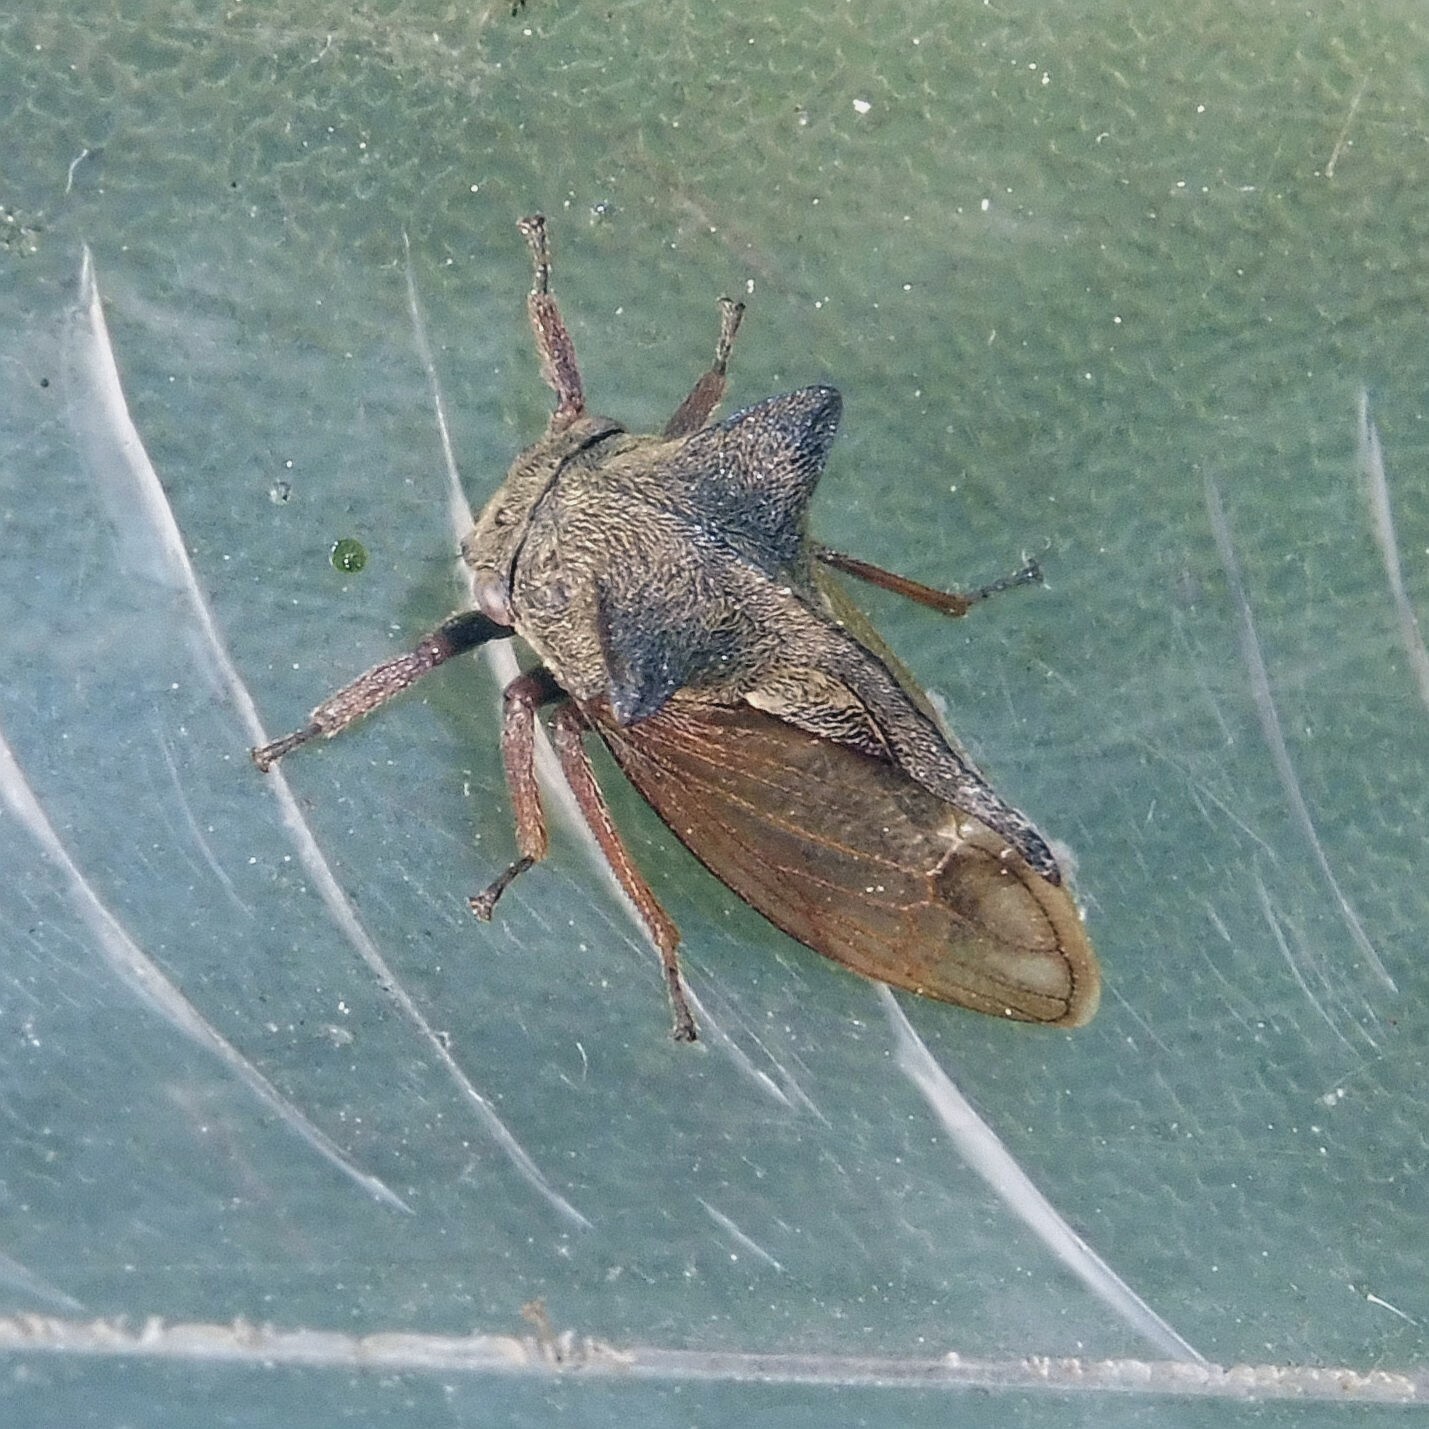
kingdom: Animalia
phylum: Arthropoda
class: Insecta
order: Hemiptera
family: Membracidae
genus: Centrotus
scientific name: Centrotus cornuta
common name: Treehopper
